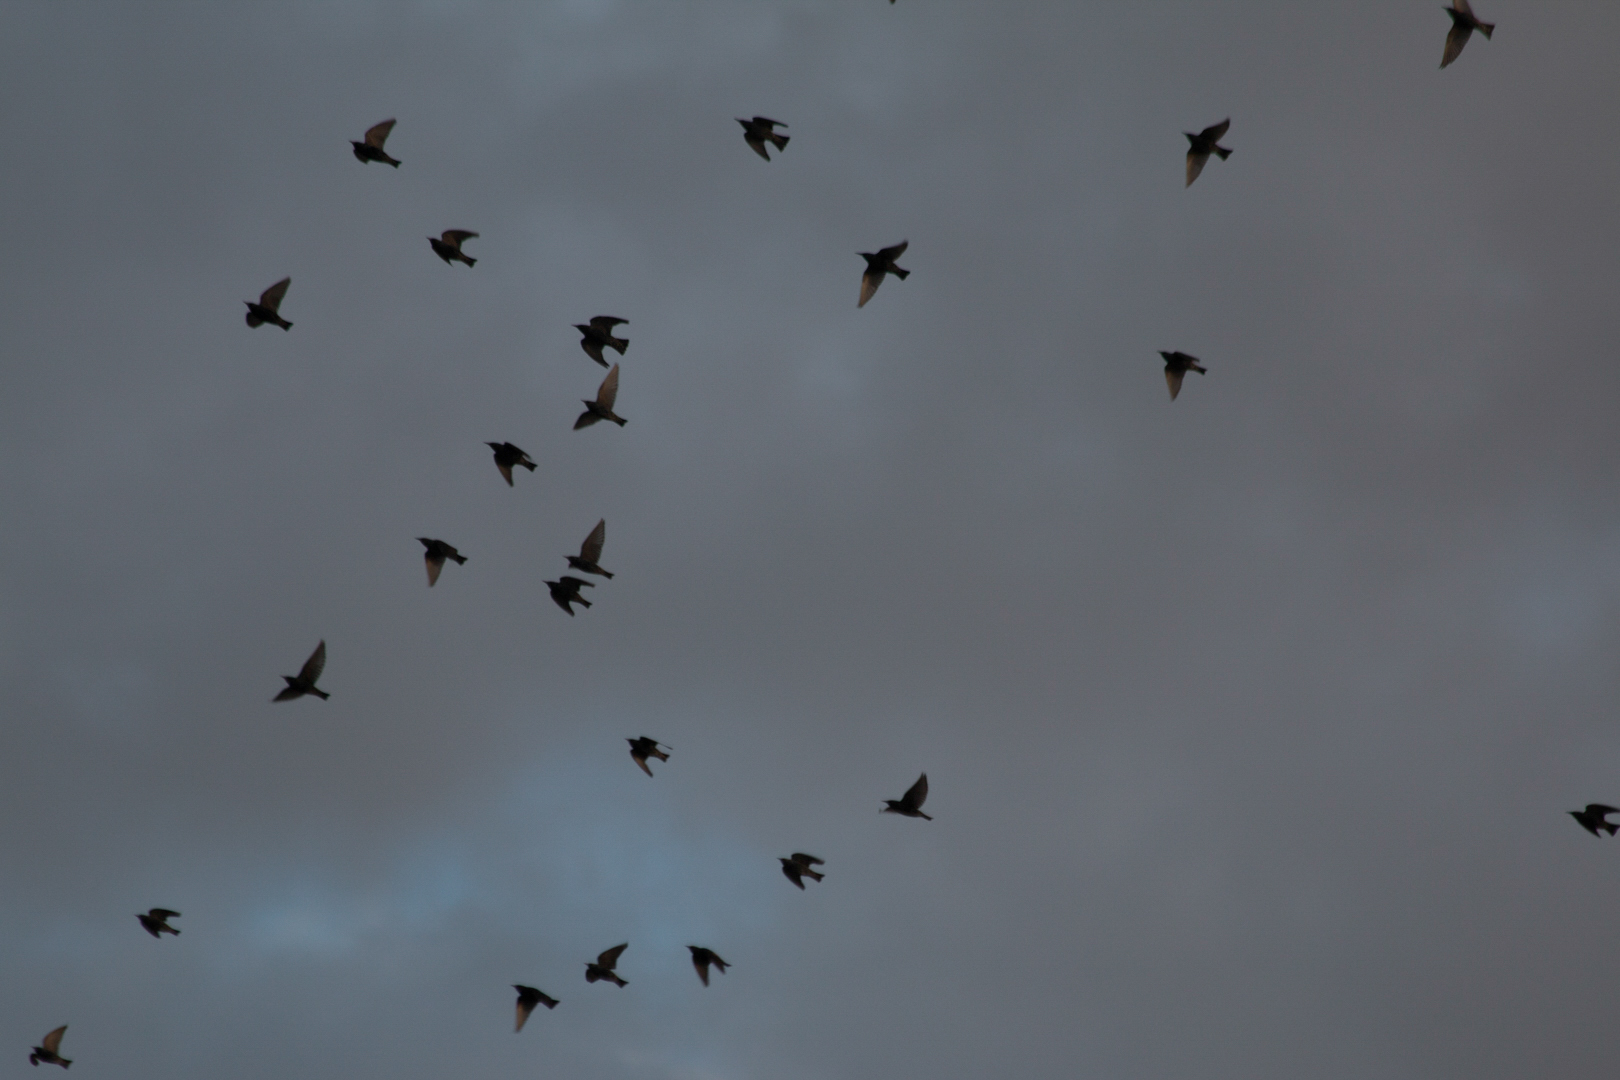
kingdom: Animalia
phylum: Chordata
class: Aves
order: Passeriformes
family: Sturnidae
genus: Sturnus
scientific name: Sturnus vulgaris
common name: Common starling
